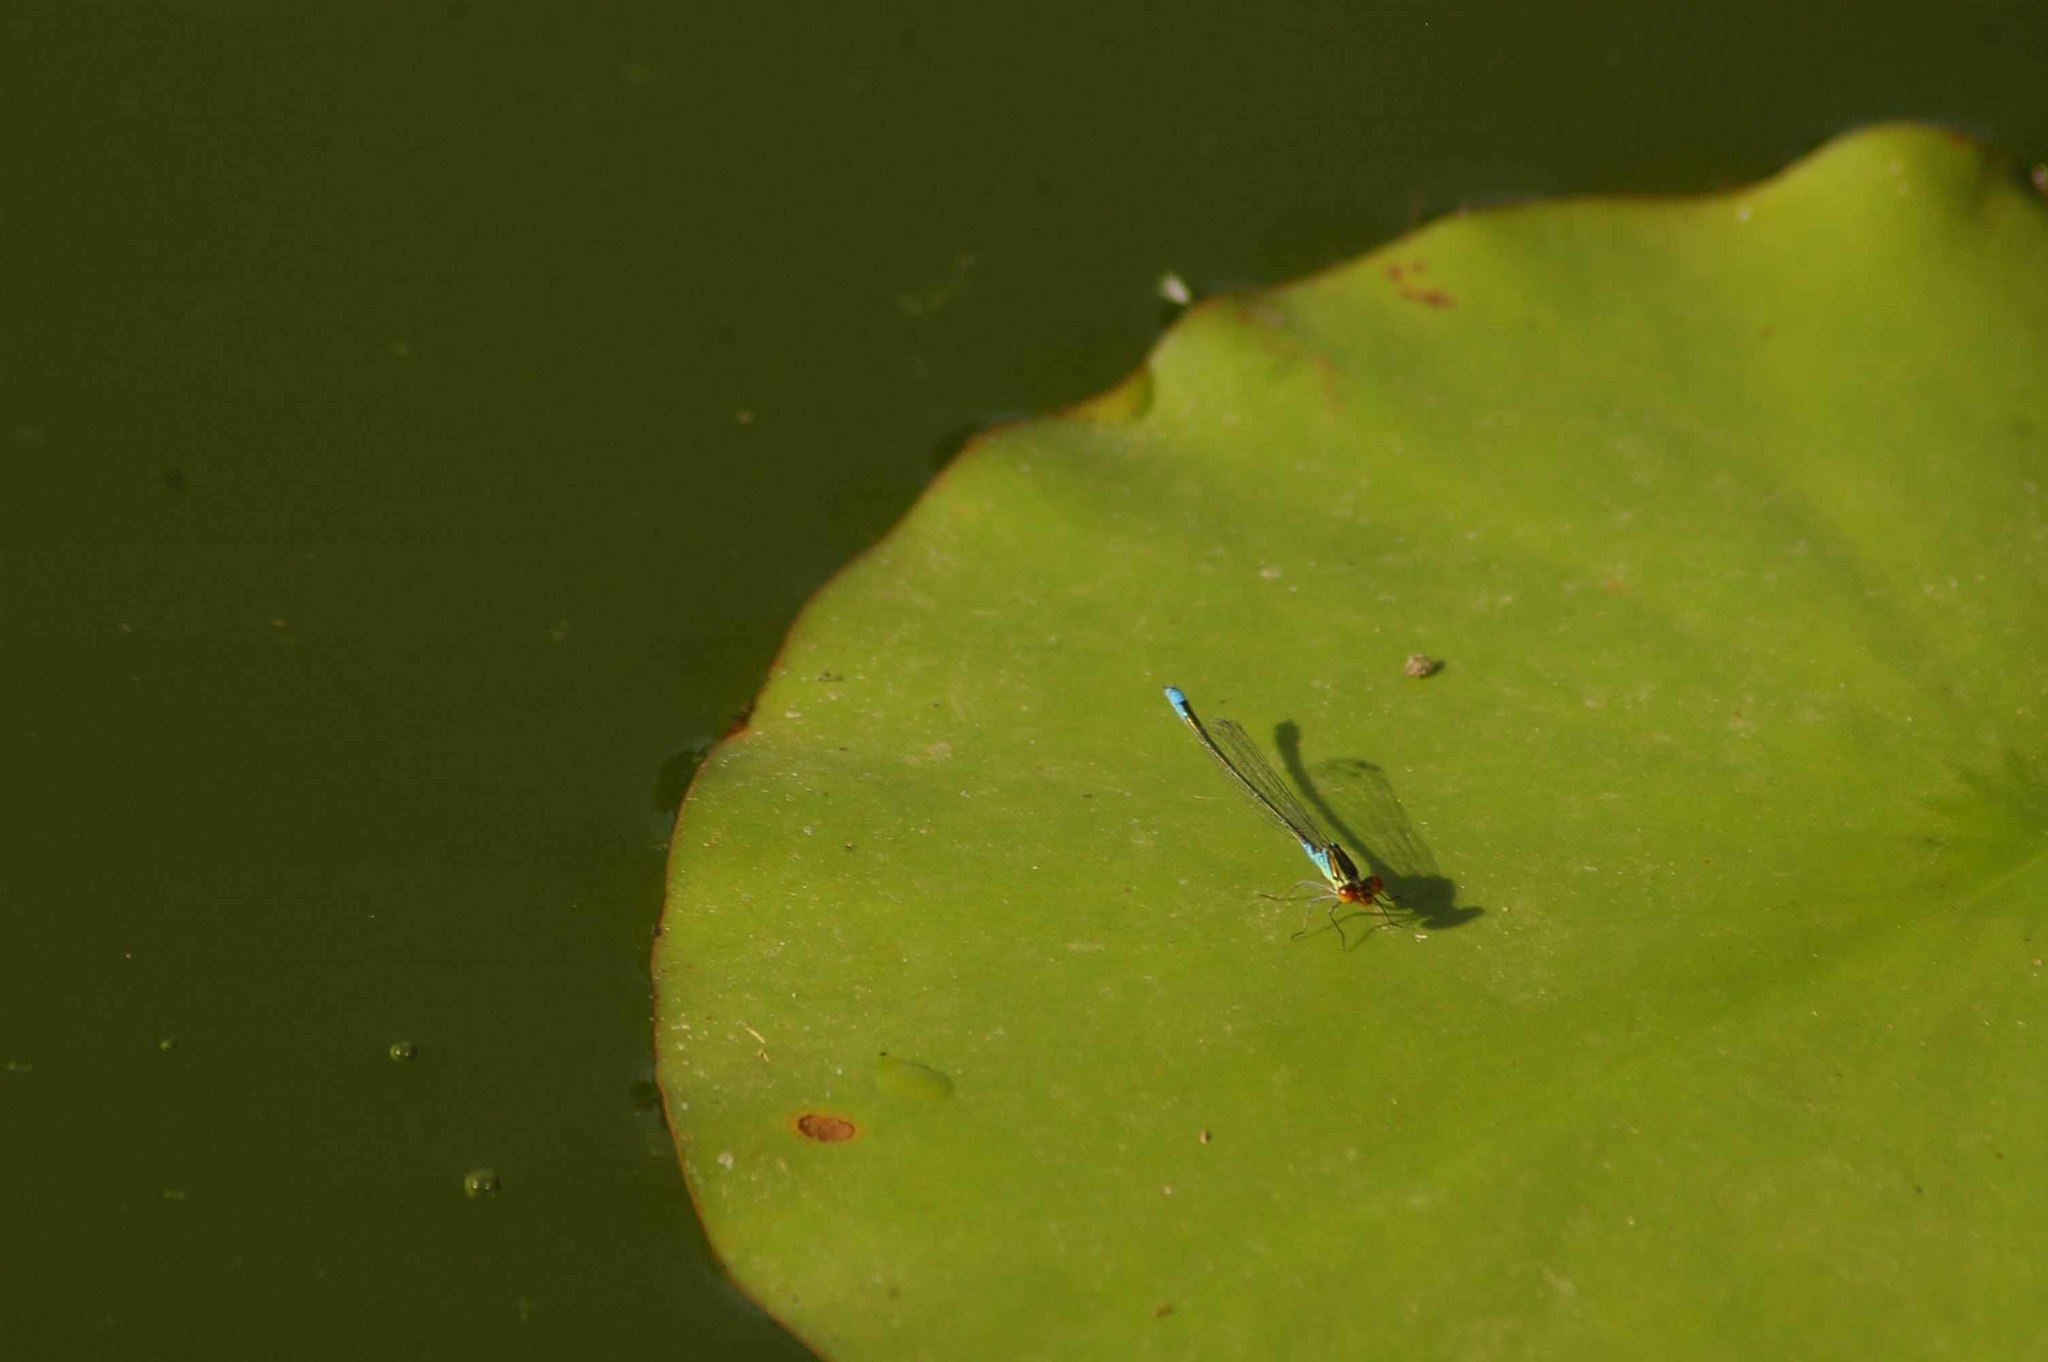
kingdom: Animalia
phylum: Arthropoda
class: Insecta
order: Odonata
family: Coenagrionidae
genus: Erythromma
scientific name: Erythromma viridulum
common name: Small red-eyed damselfly
